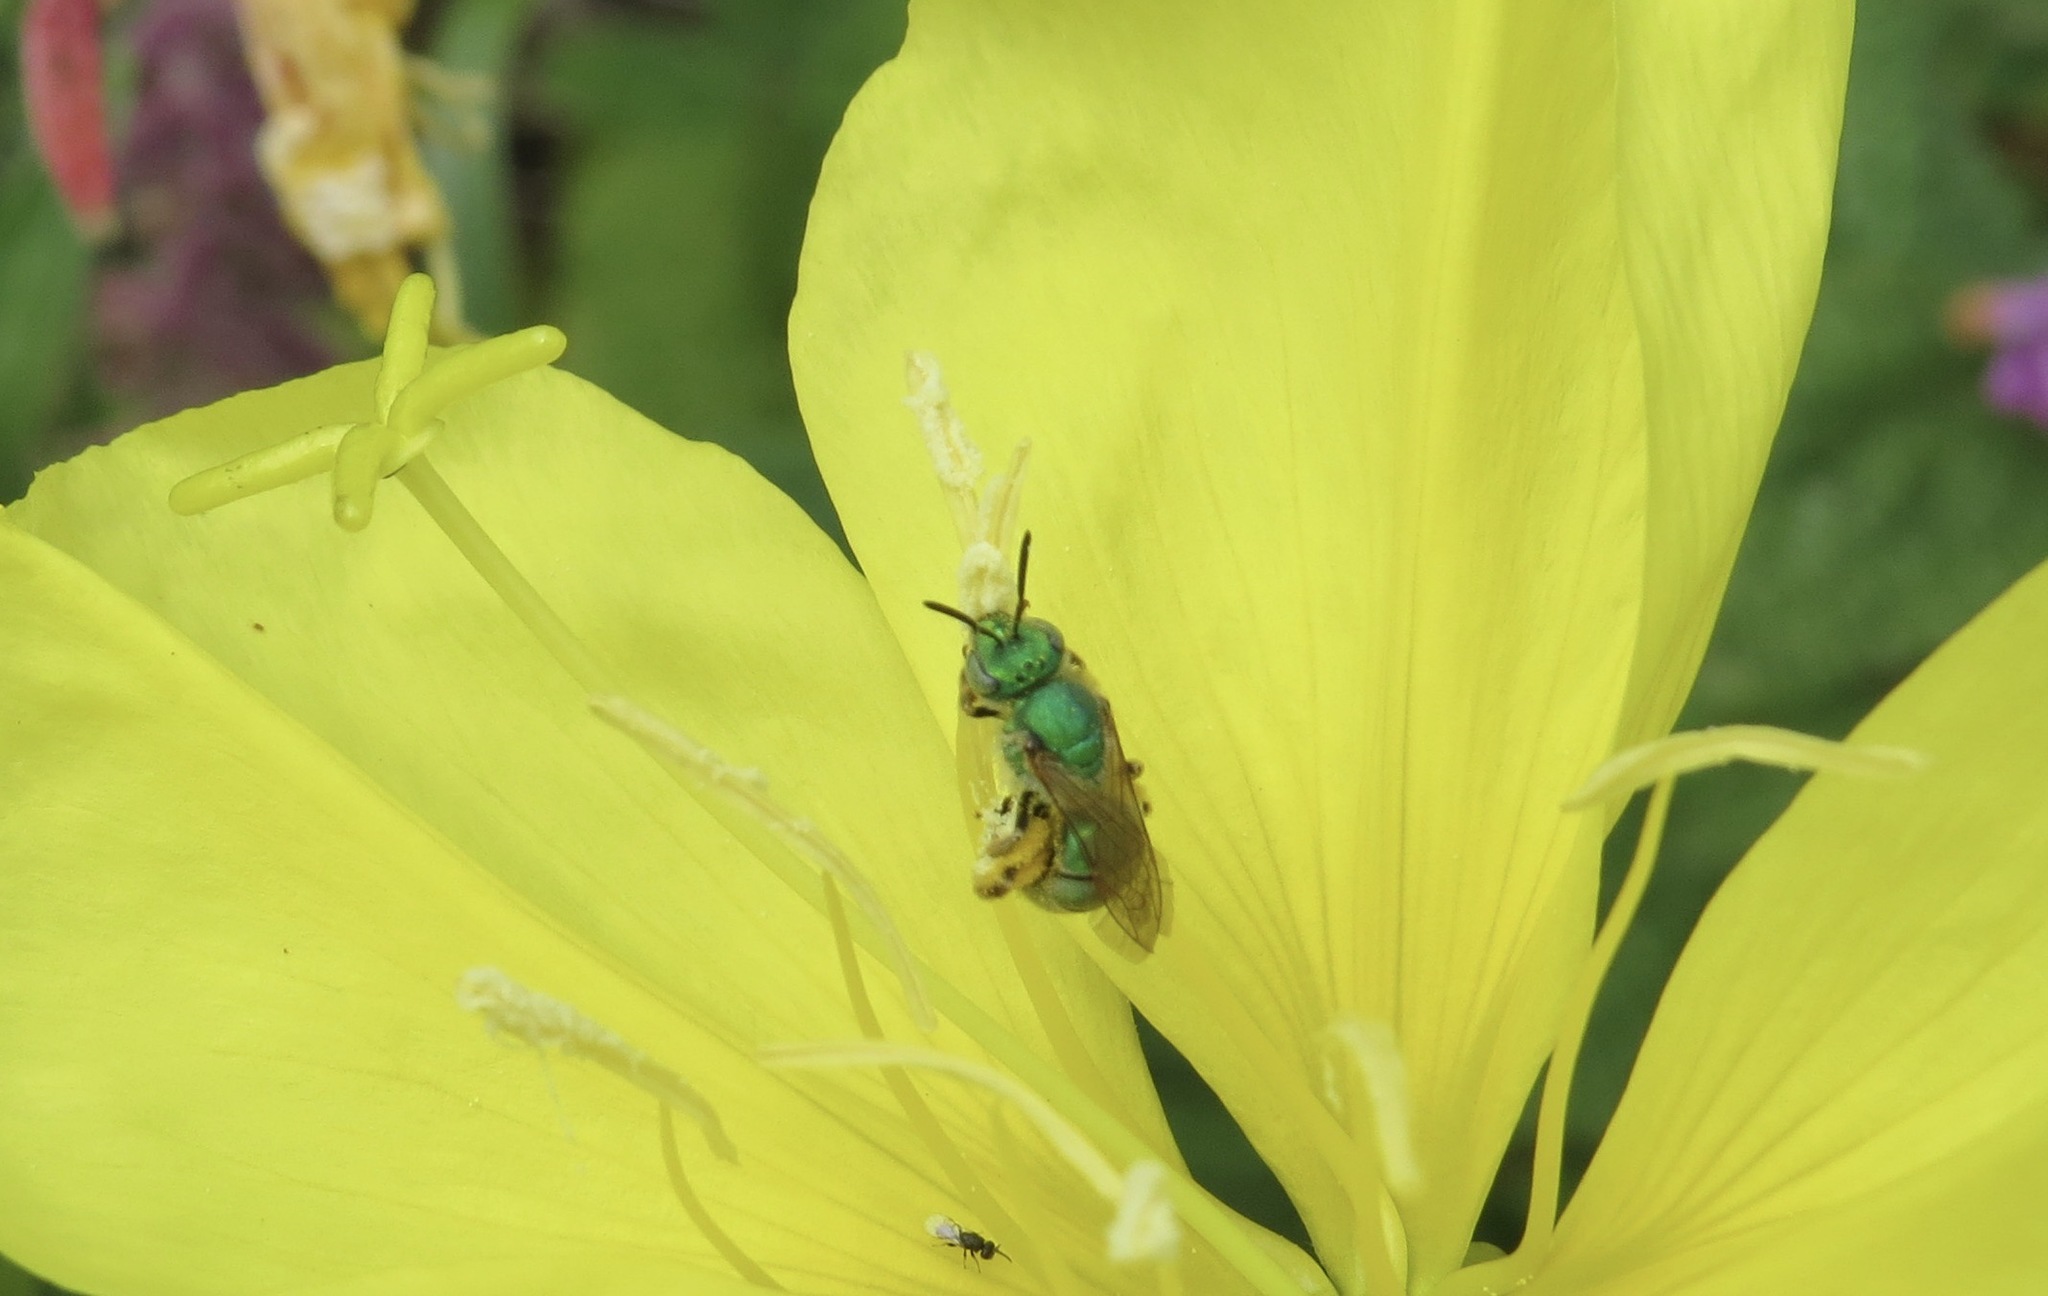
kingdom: Animalia
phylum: Arthropoda
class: Insecta
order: Hymenoptera
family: Halictidae
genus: Agapostemon
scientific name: Agapostemon texanus
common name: Texas striped sweat bee
